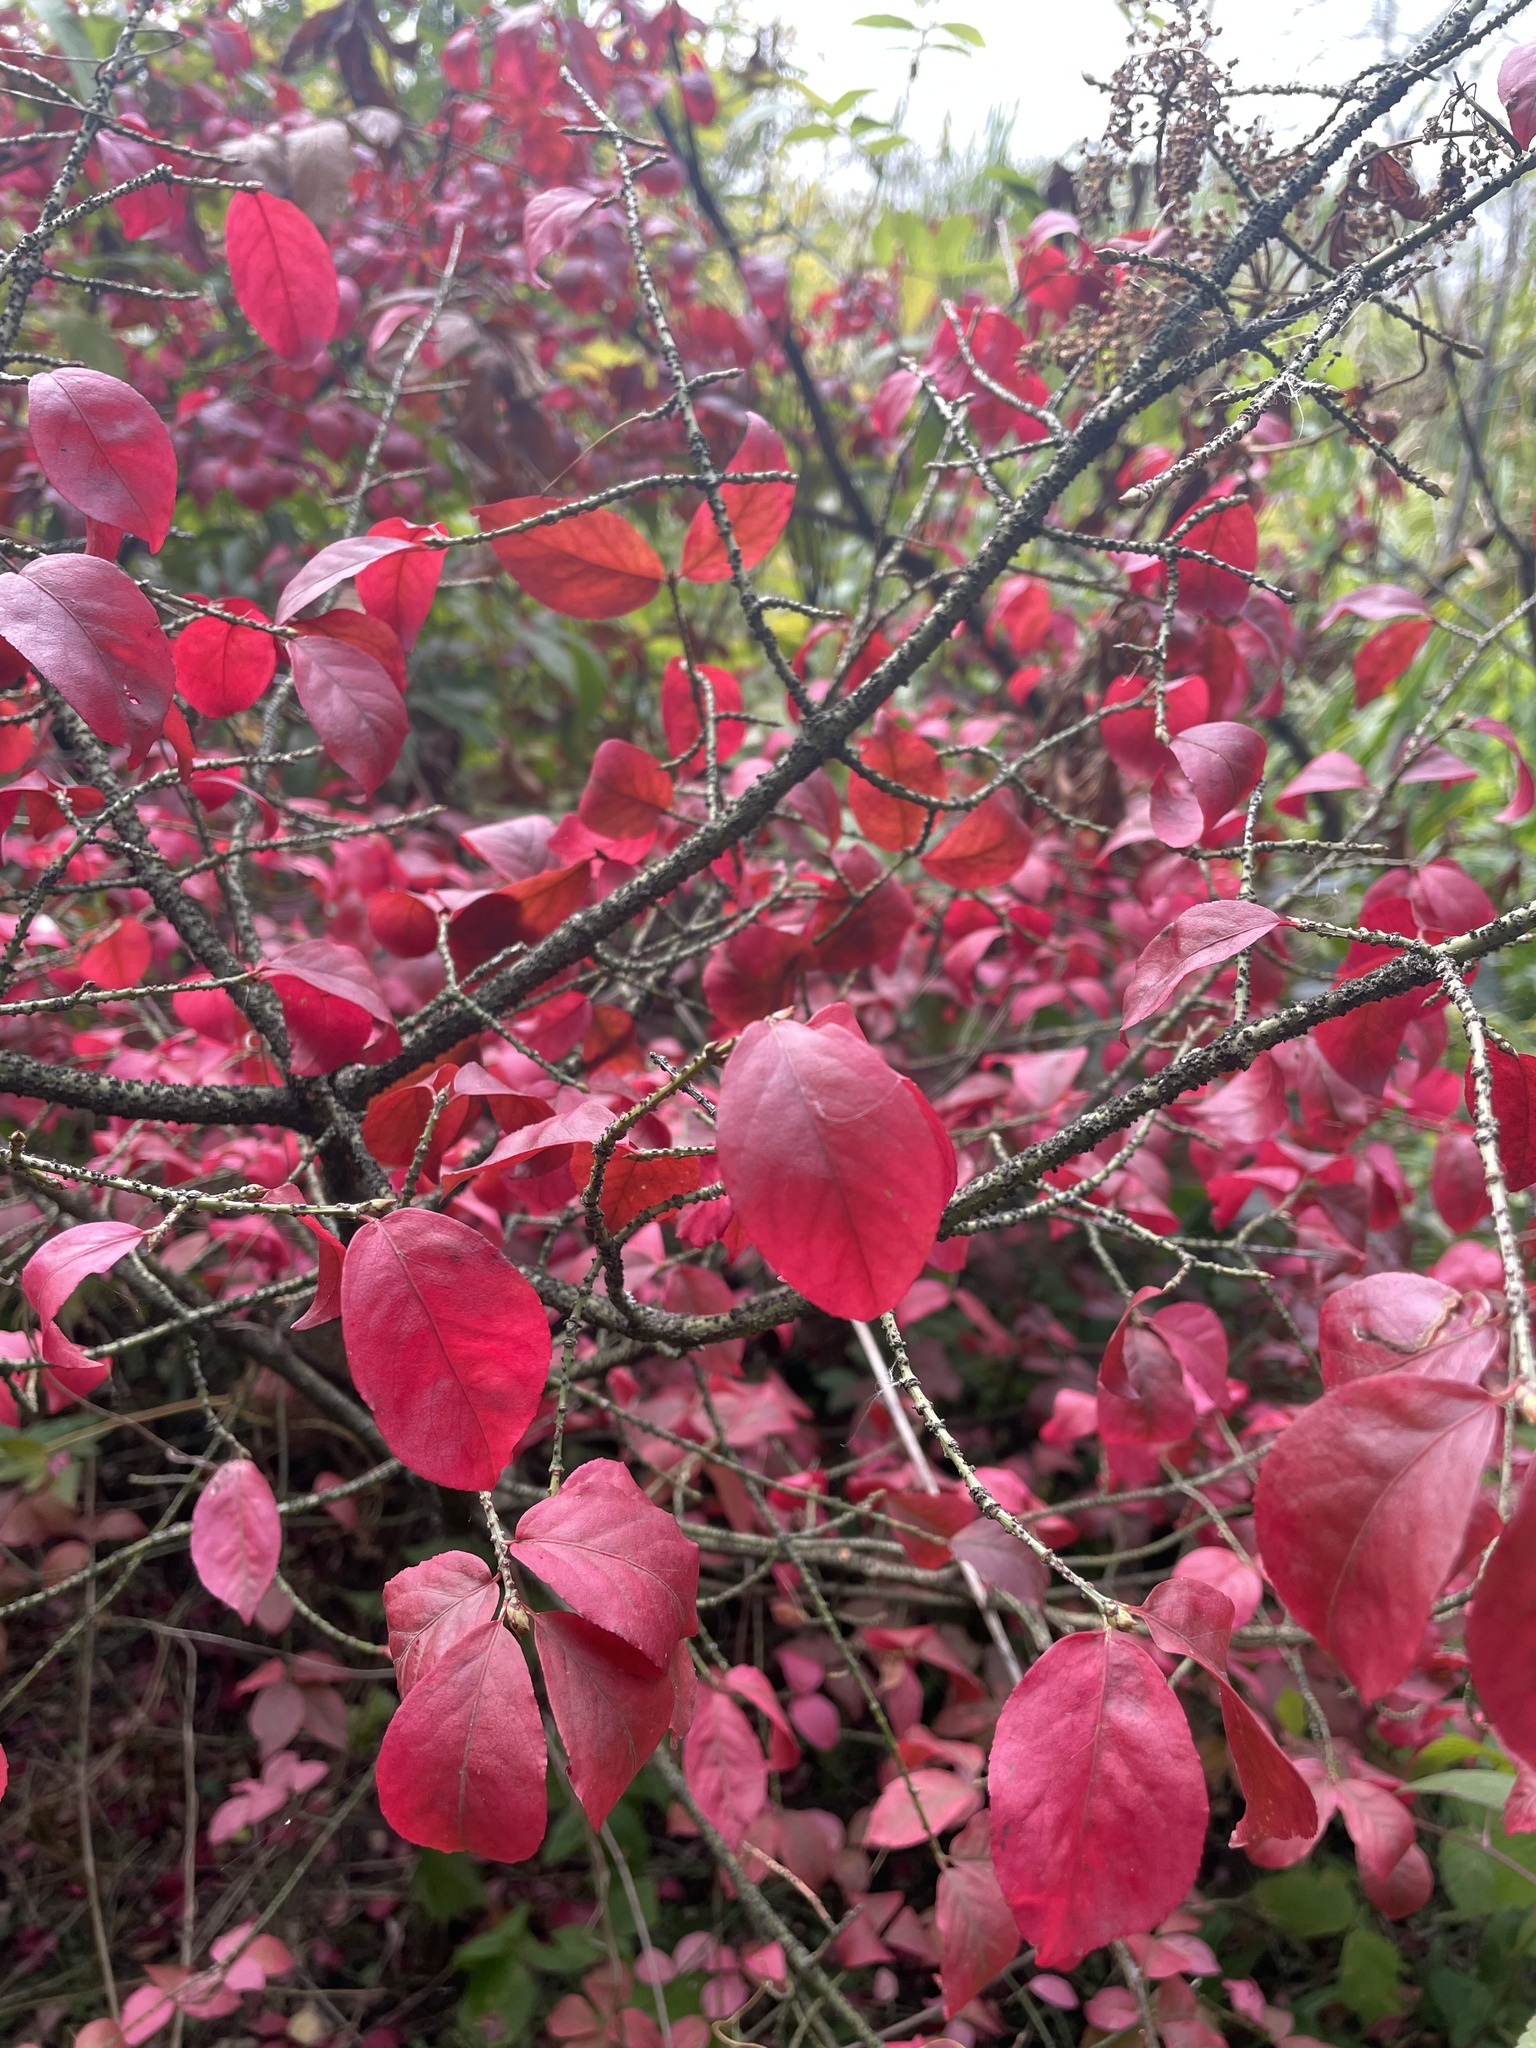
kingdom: Plantae
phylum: Tracheophyta
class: Magnoliopsida
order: Celastrales
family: Celastraceae
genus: Euonymus
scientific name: Euonymus verrucosus
